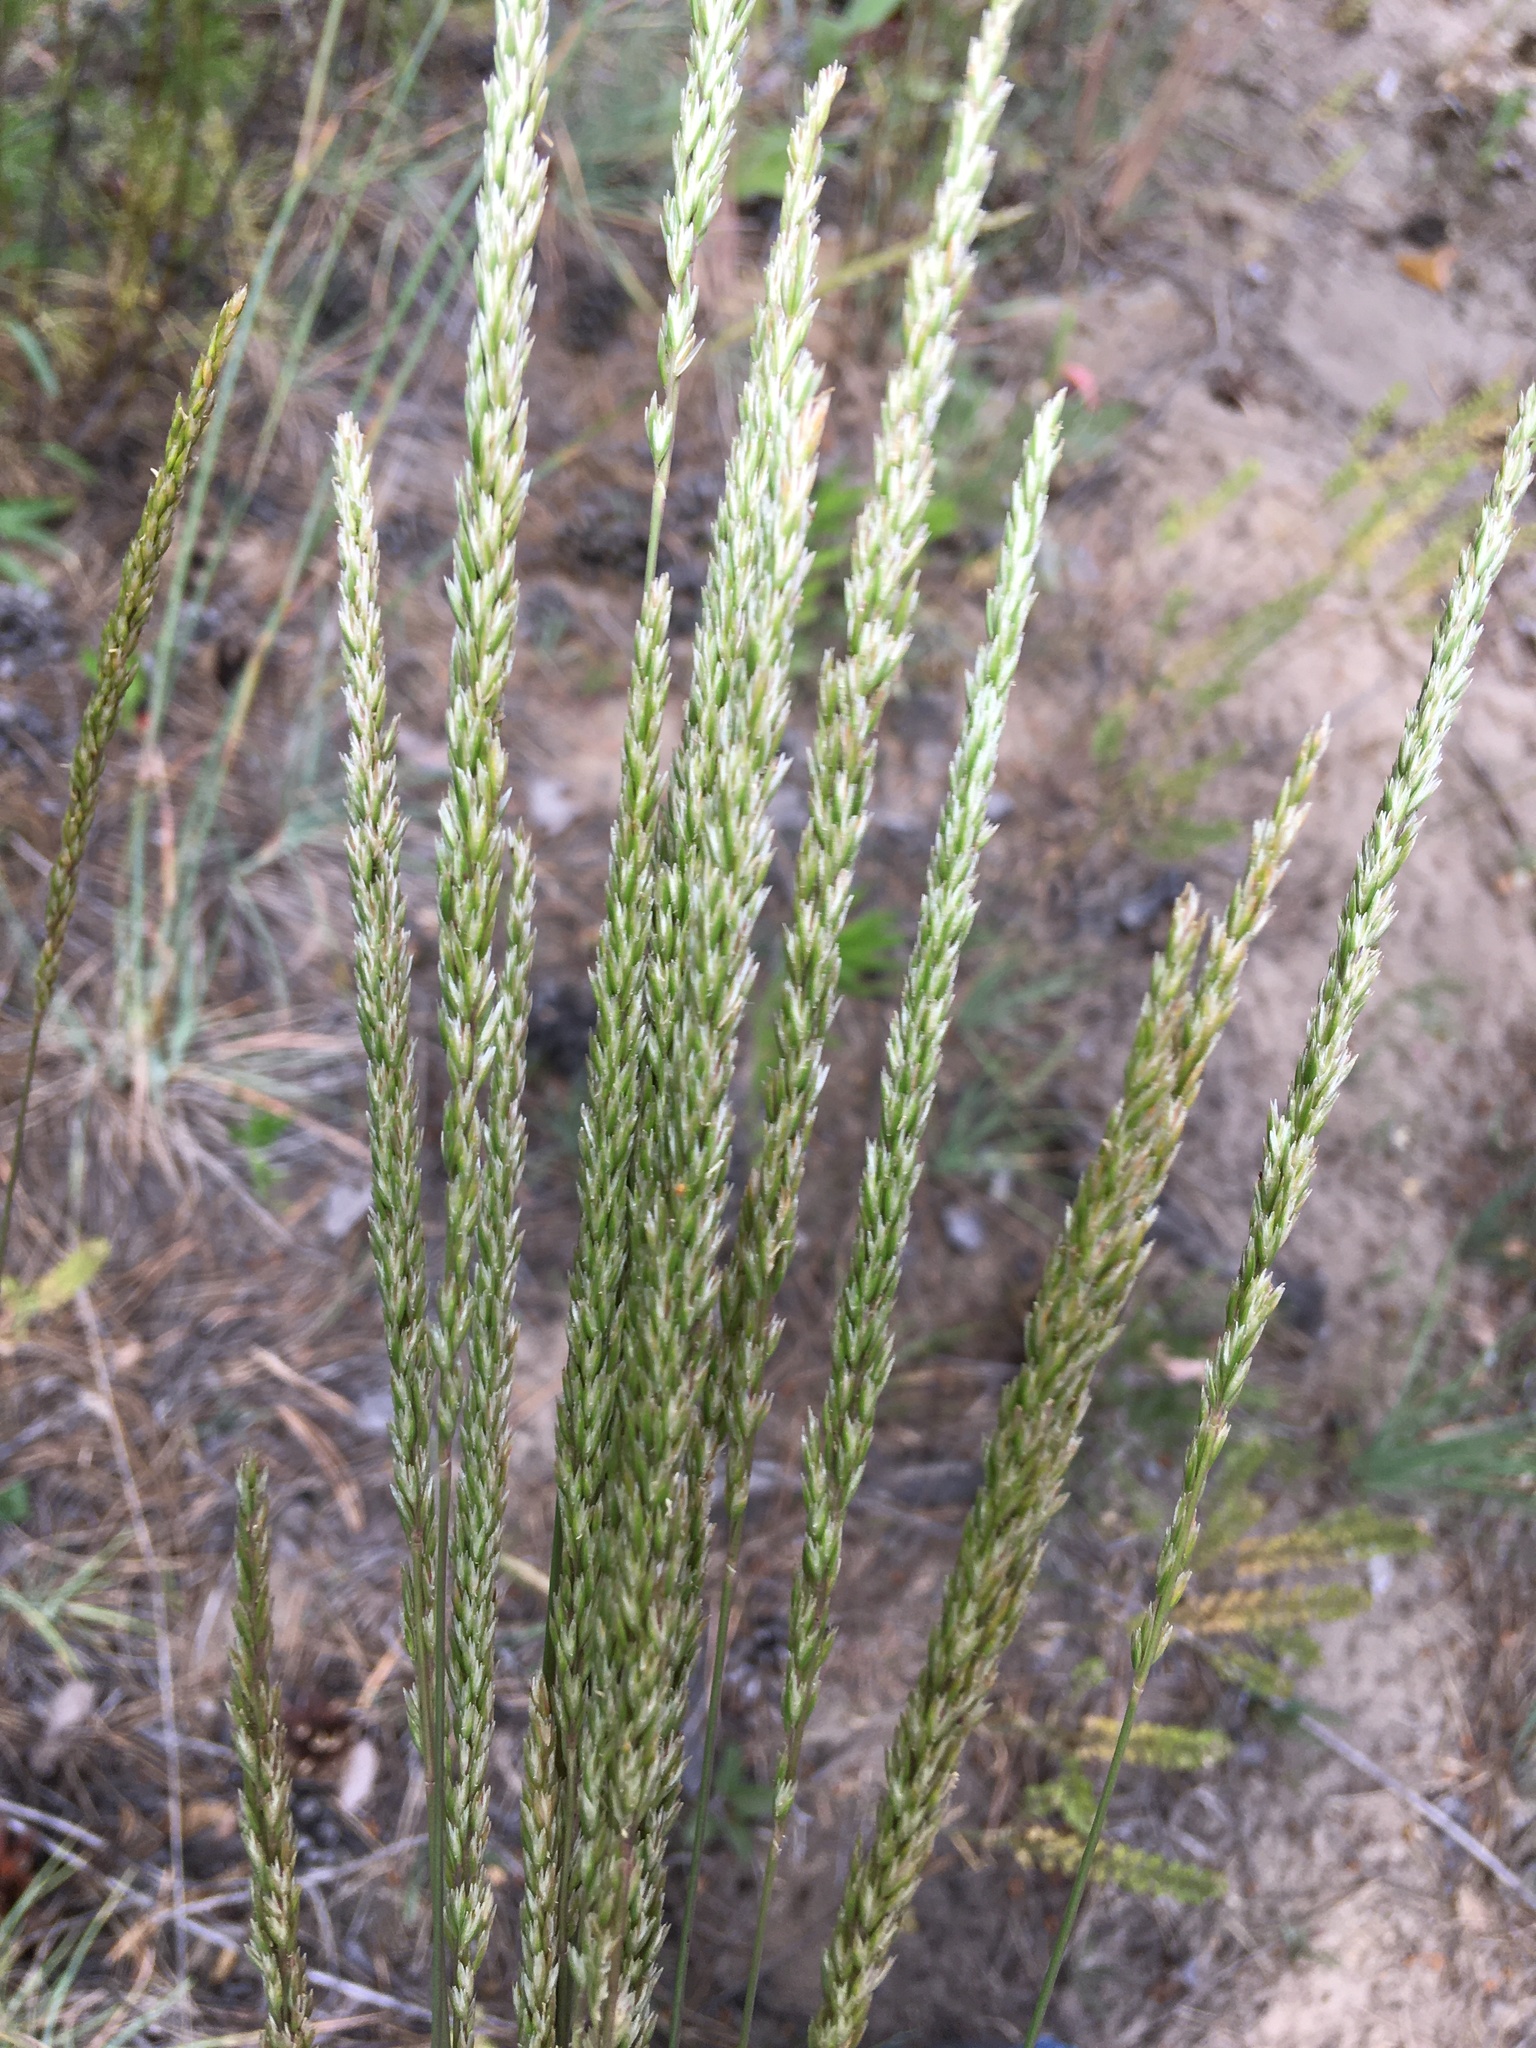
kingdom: Plantae
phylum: Tracheophyta
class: Liliopsida
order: Poales
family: Poaceae
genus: Koeleria
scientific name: Koeleria glauca
